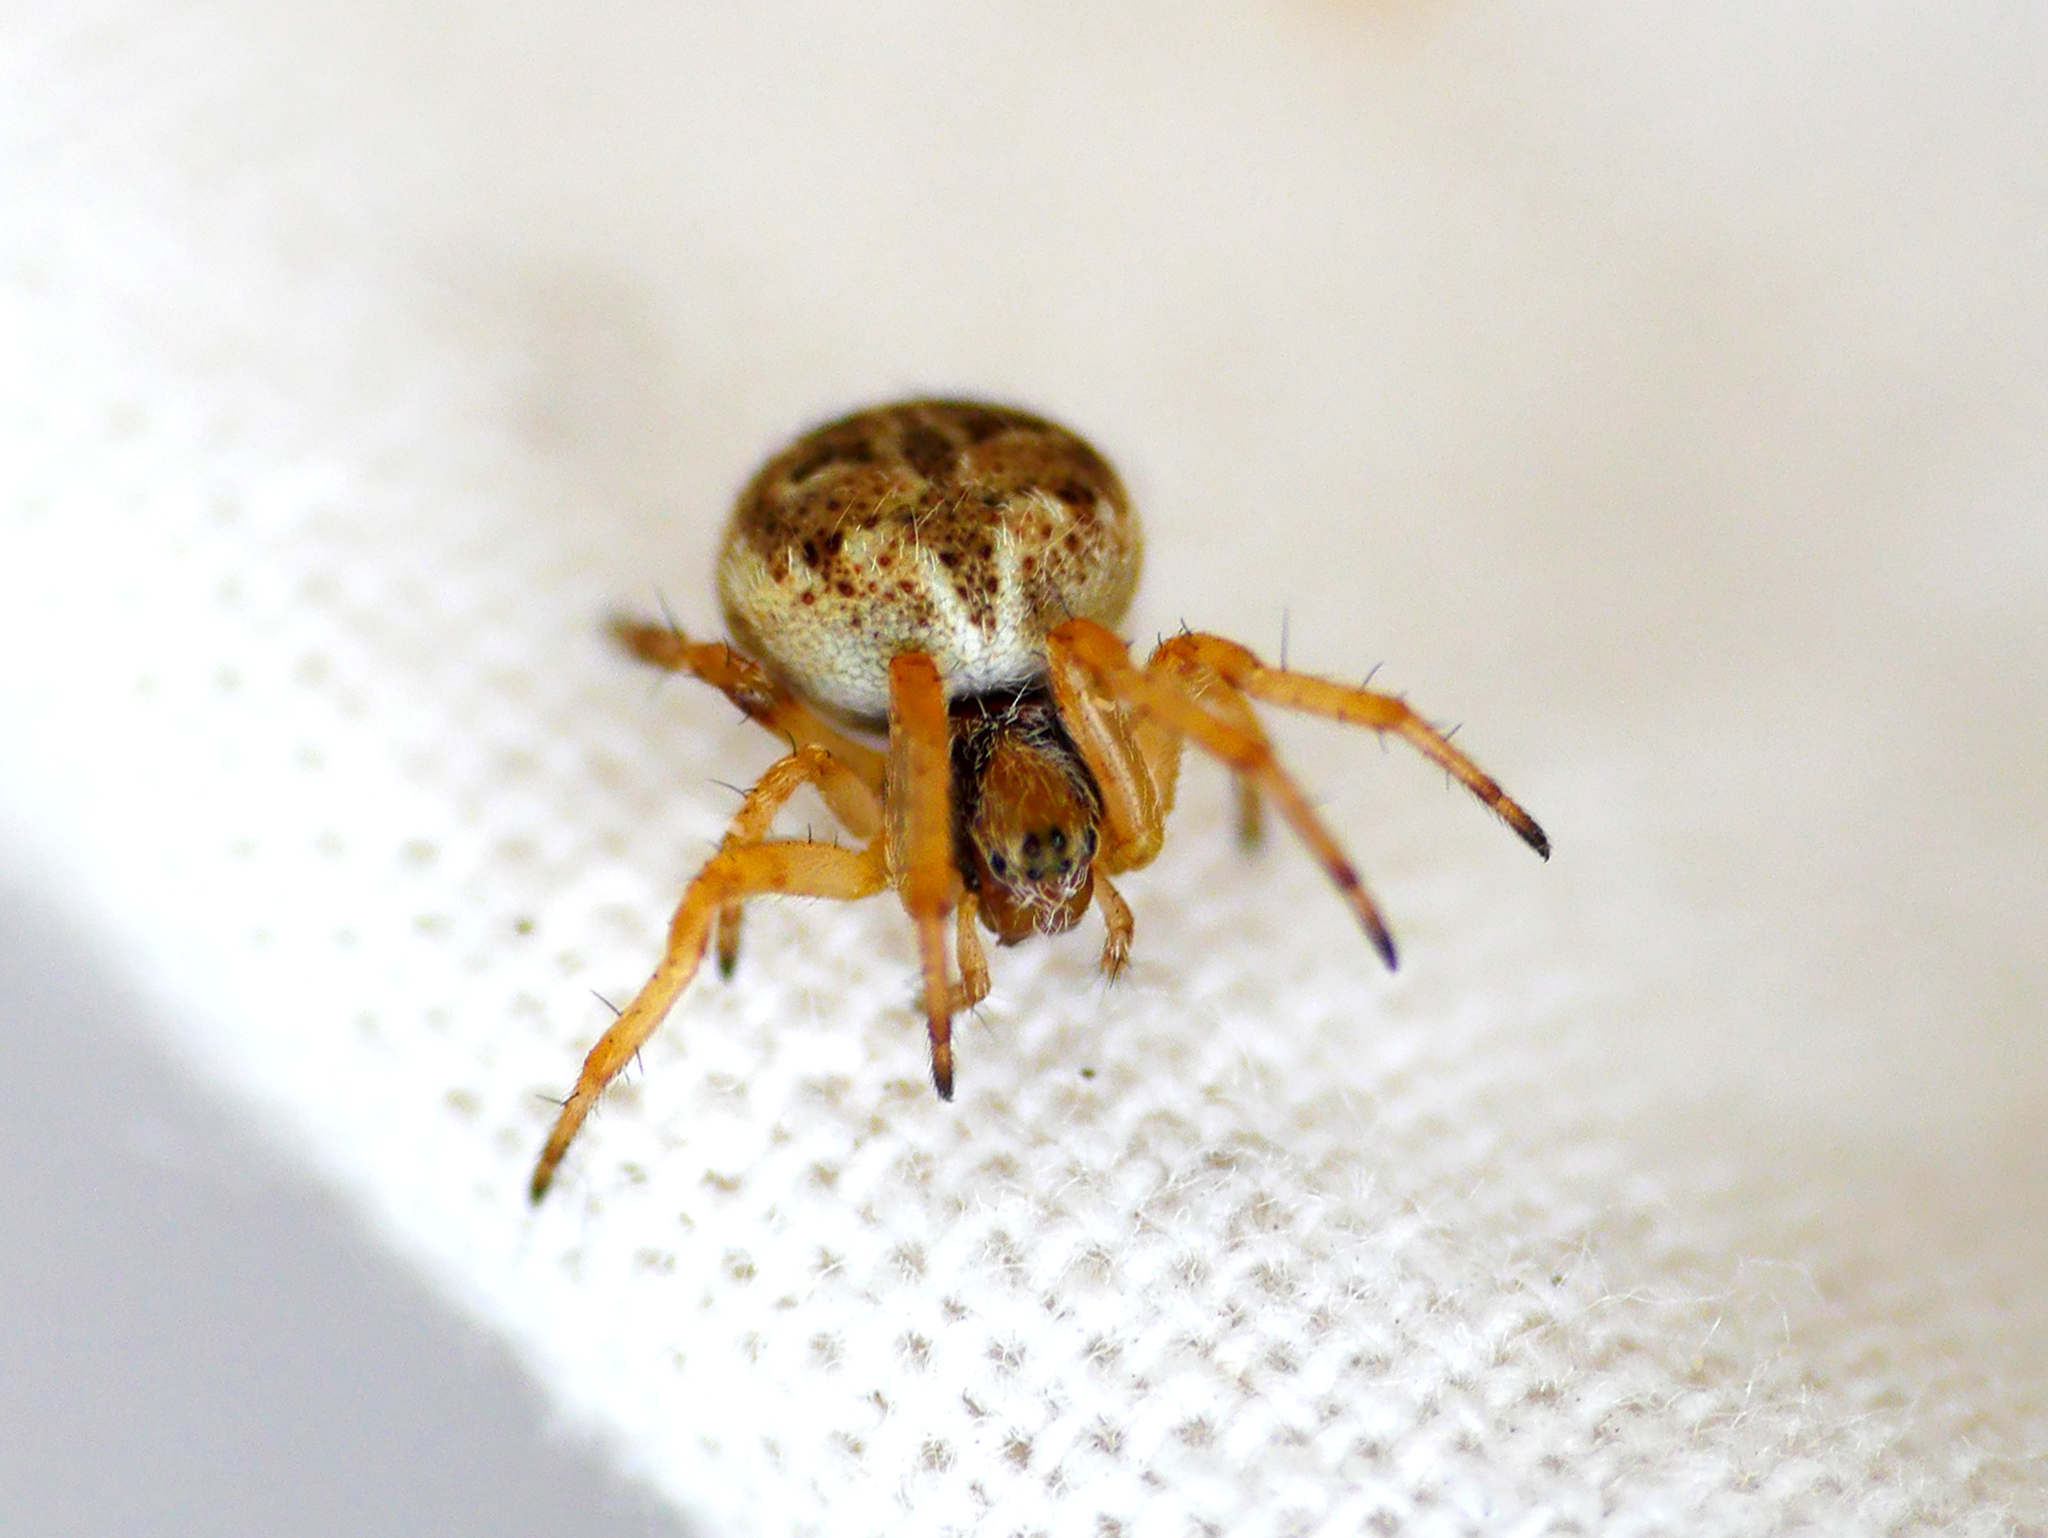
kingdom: Animalia
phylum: Arthropoda
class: Arachnida
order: Araneae
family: Araneidae
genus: Agalenatea
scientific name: Agalenatea redii
